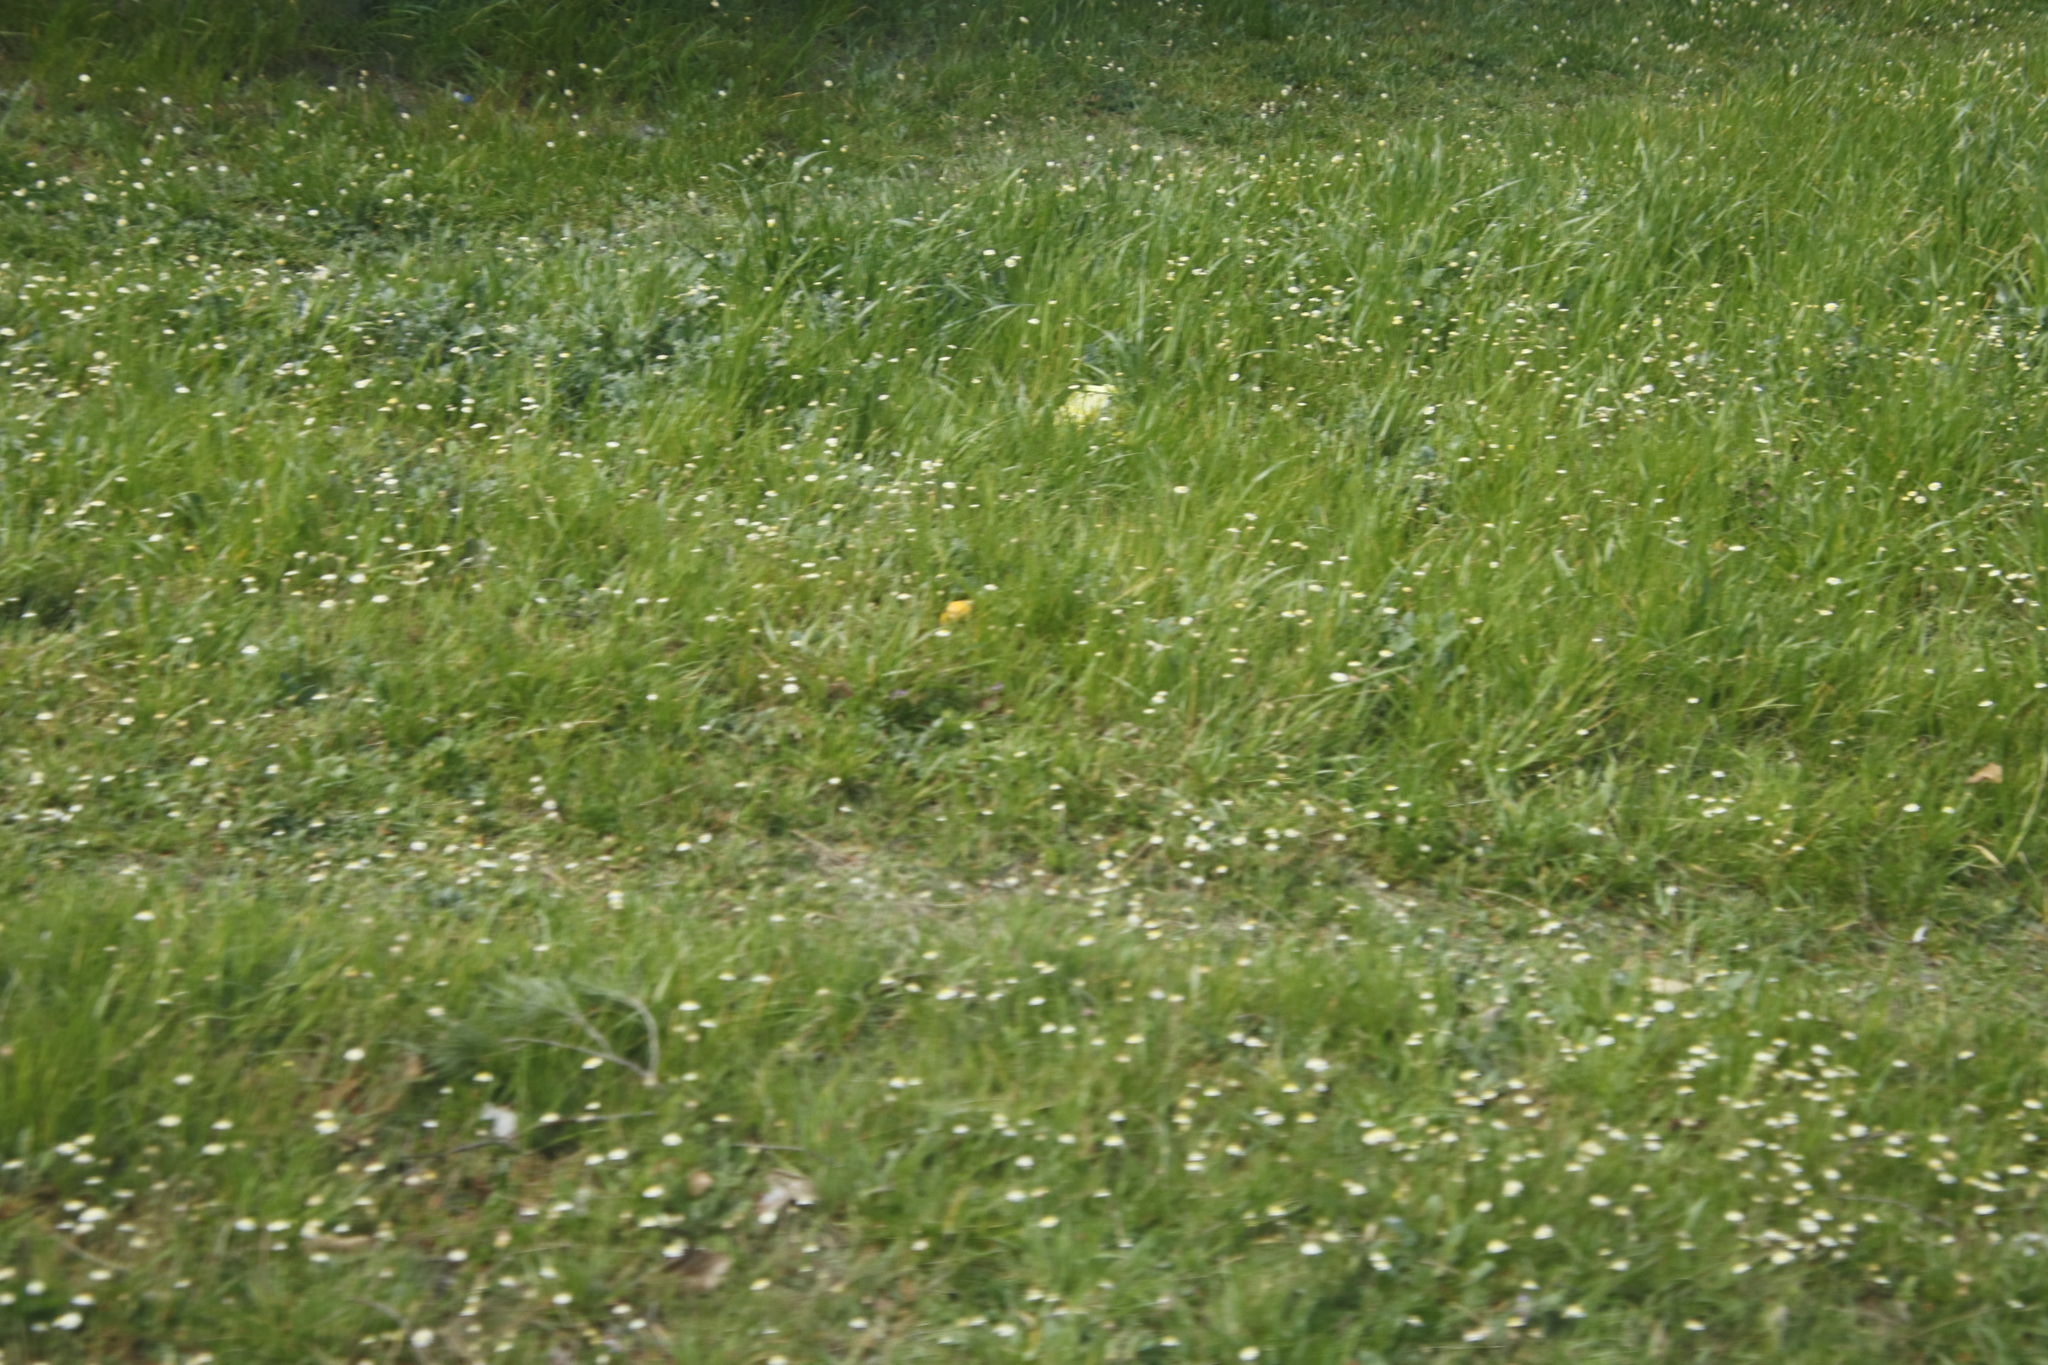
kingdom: Plantae
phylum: Tracheophyta
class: Magnoliopsida
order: Asterales
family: Asteraceae
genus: Cotula
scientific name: Cotula turbinata
